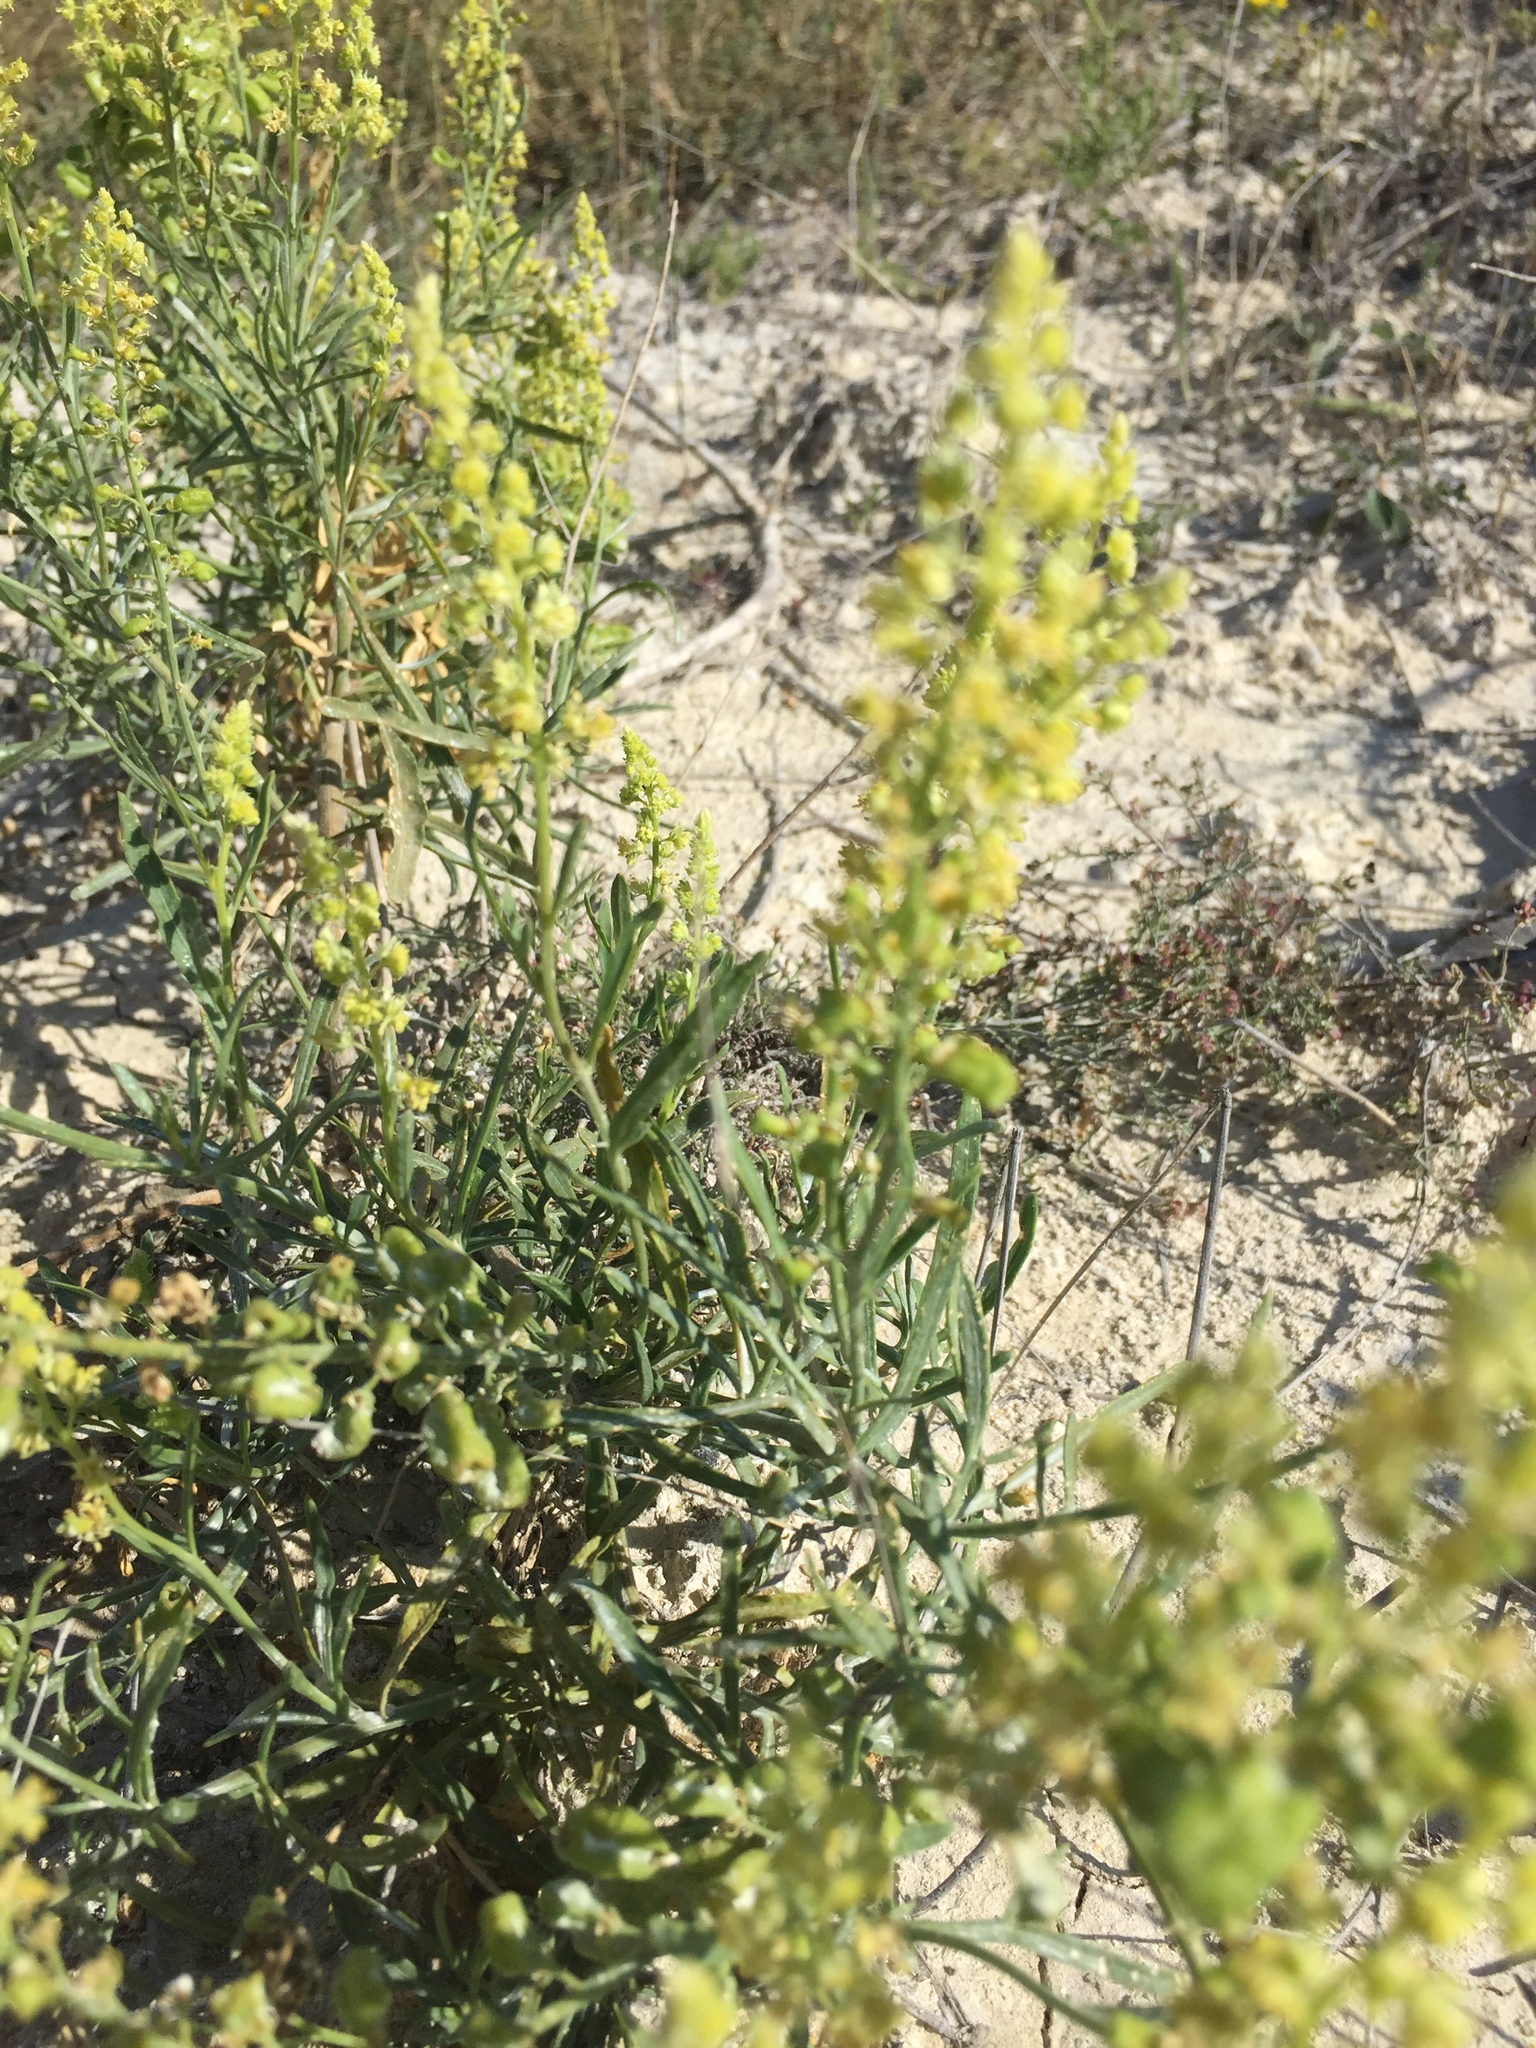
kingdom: Plantae
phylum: Tracheophyta
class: Magnoliopsida
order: Brassicales
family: Resedaceae
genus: Reseda
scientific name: Reseda lutea
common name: Wild mignonette
